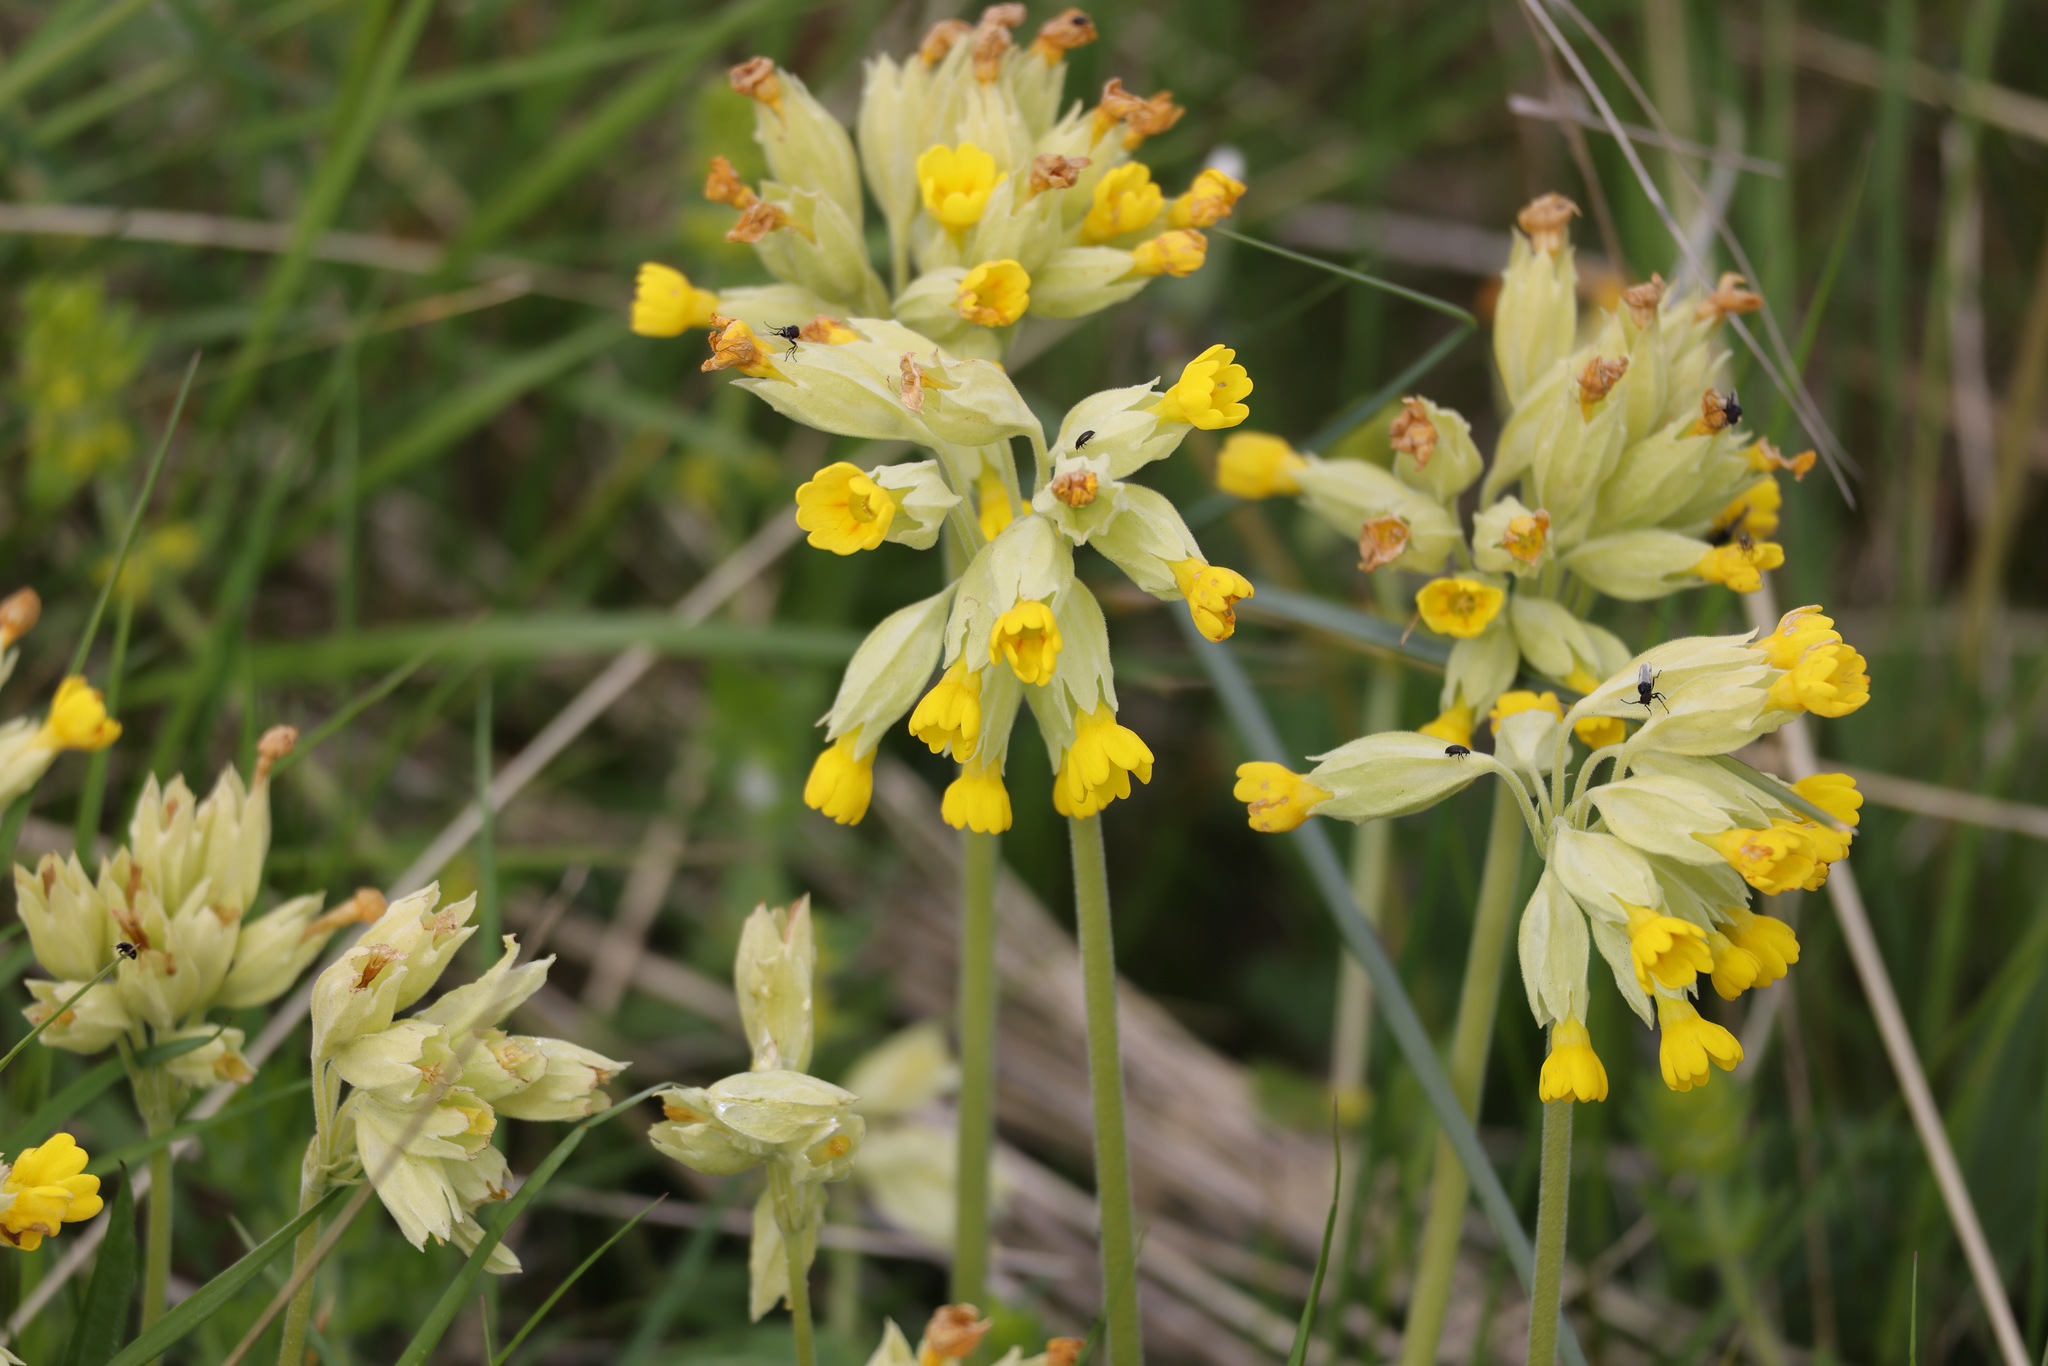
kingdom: Plantae
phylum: Tracheophyta
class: Magnoliopsida
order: Ericales
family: Primulaceae
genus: Primula
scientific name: Primula veris
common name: Cowslip
